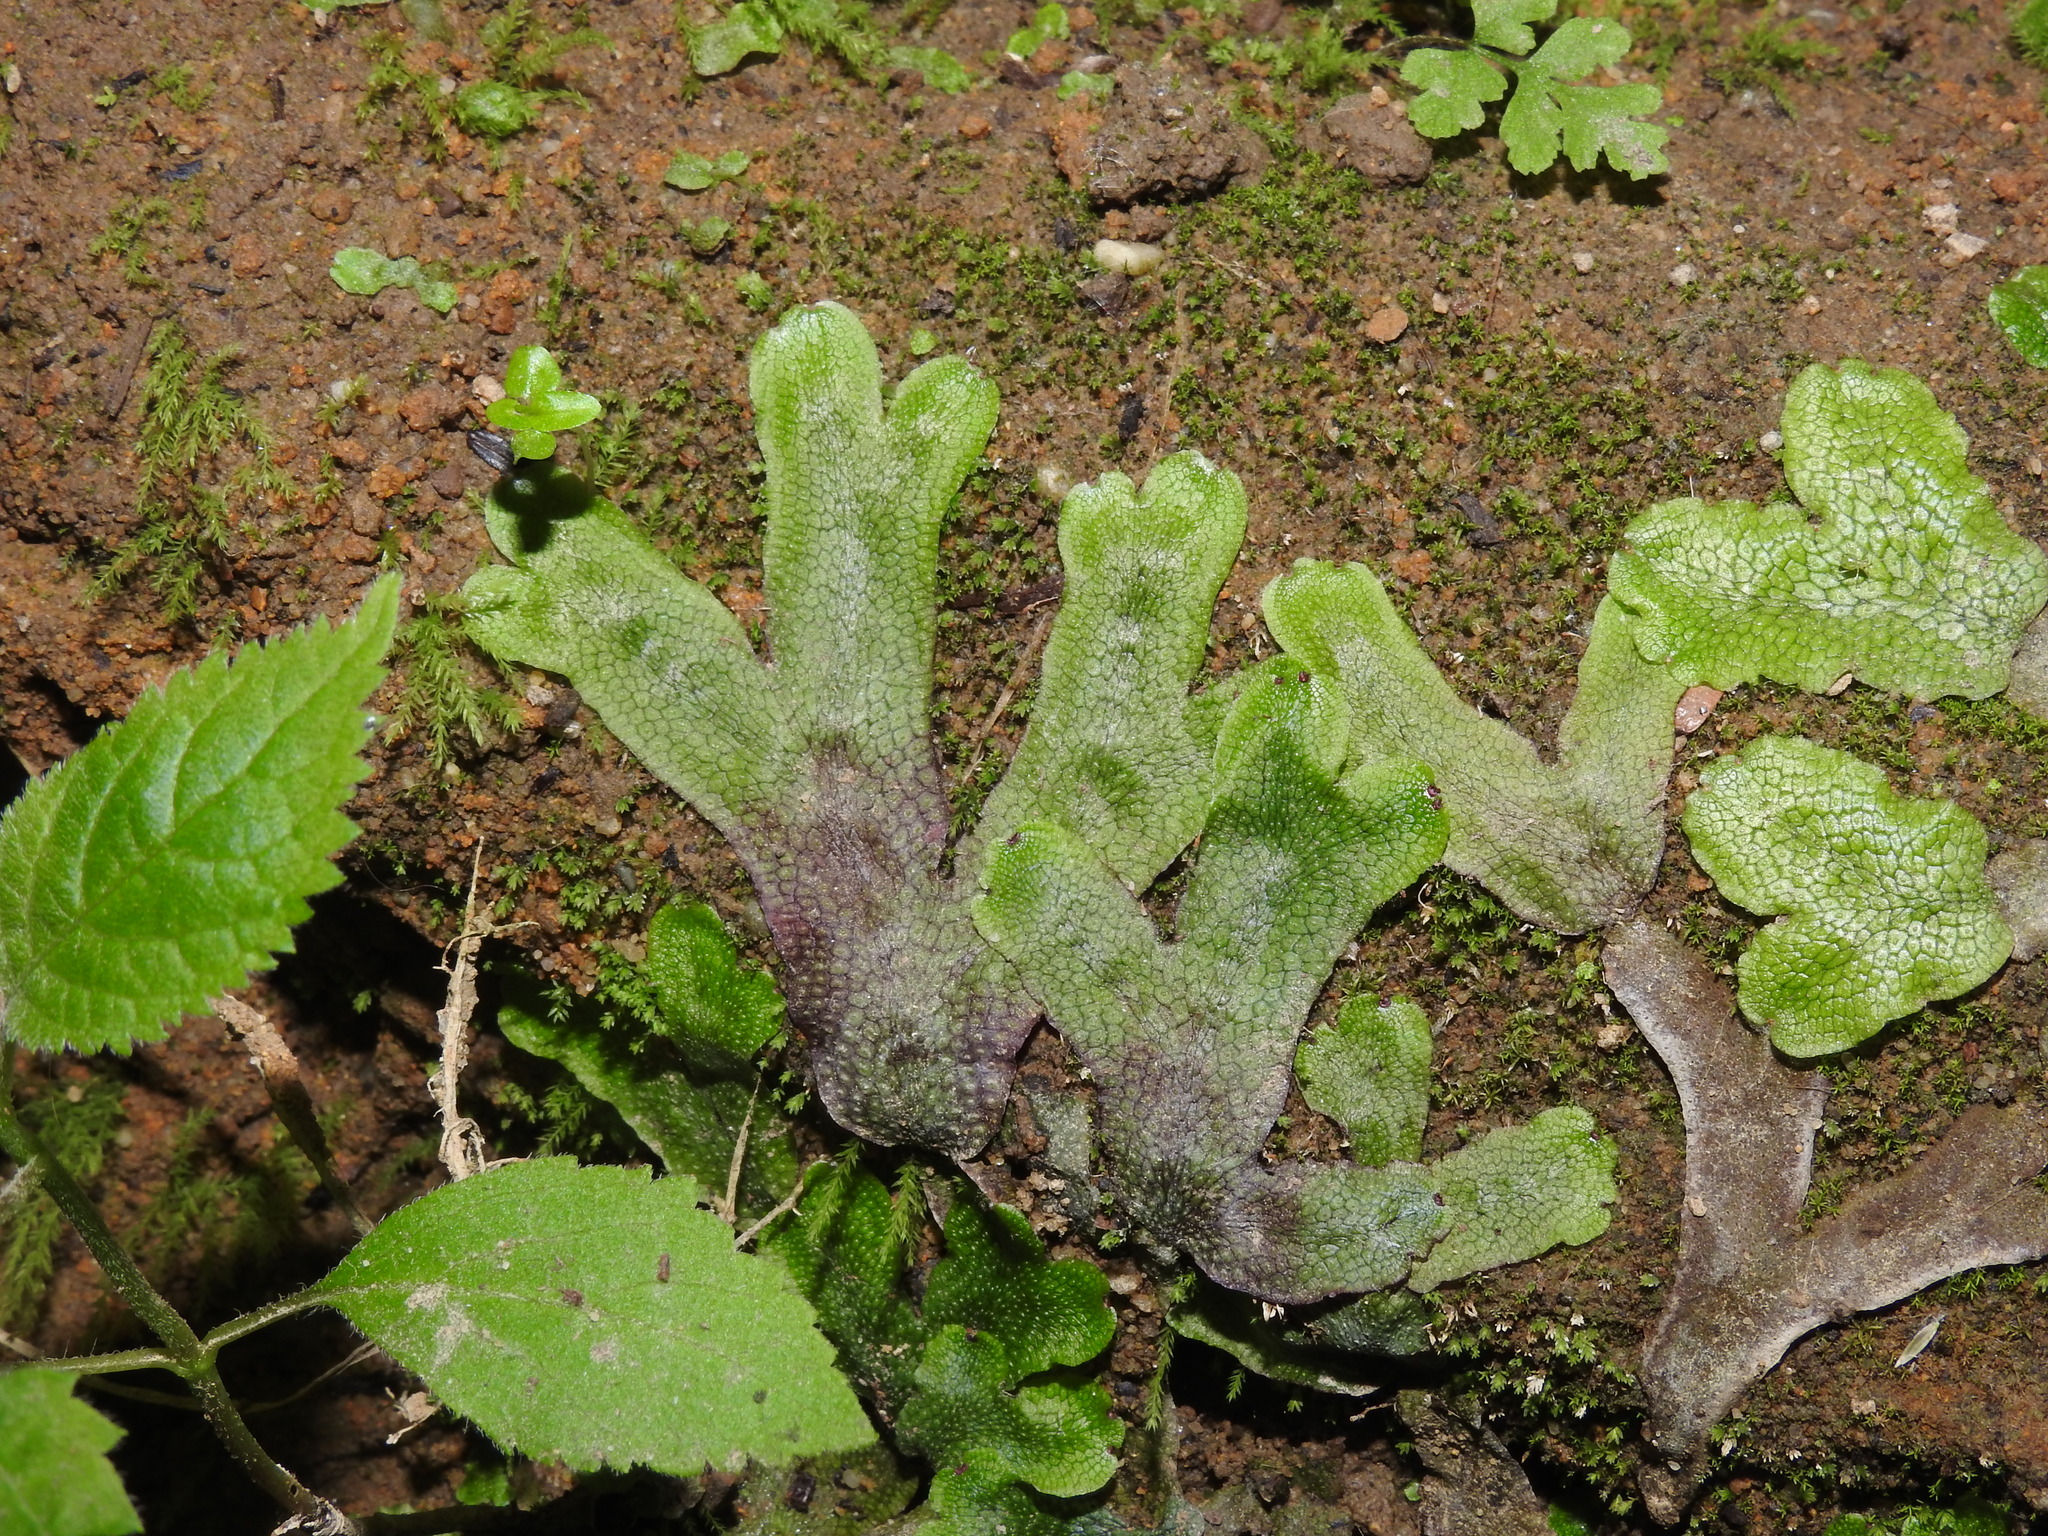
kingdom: Plantae
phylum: Marchantiophyta
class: Marchantiopsida
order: Marchantiales
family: Conocephalaceae
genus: Conocephalum
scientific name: Conocephalum salebrosum
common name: Cat-tongue liverwort
